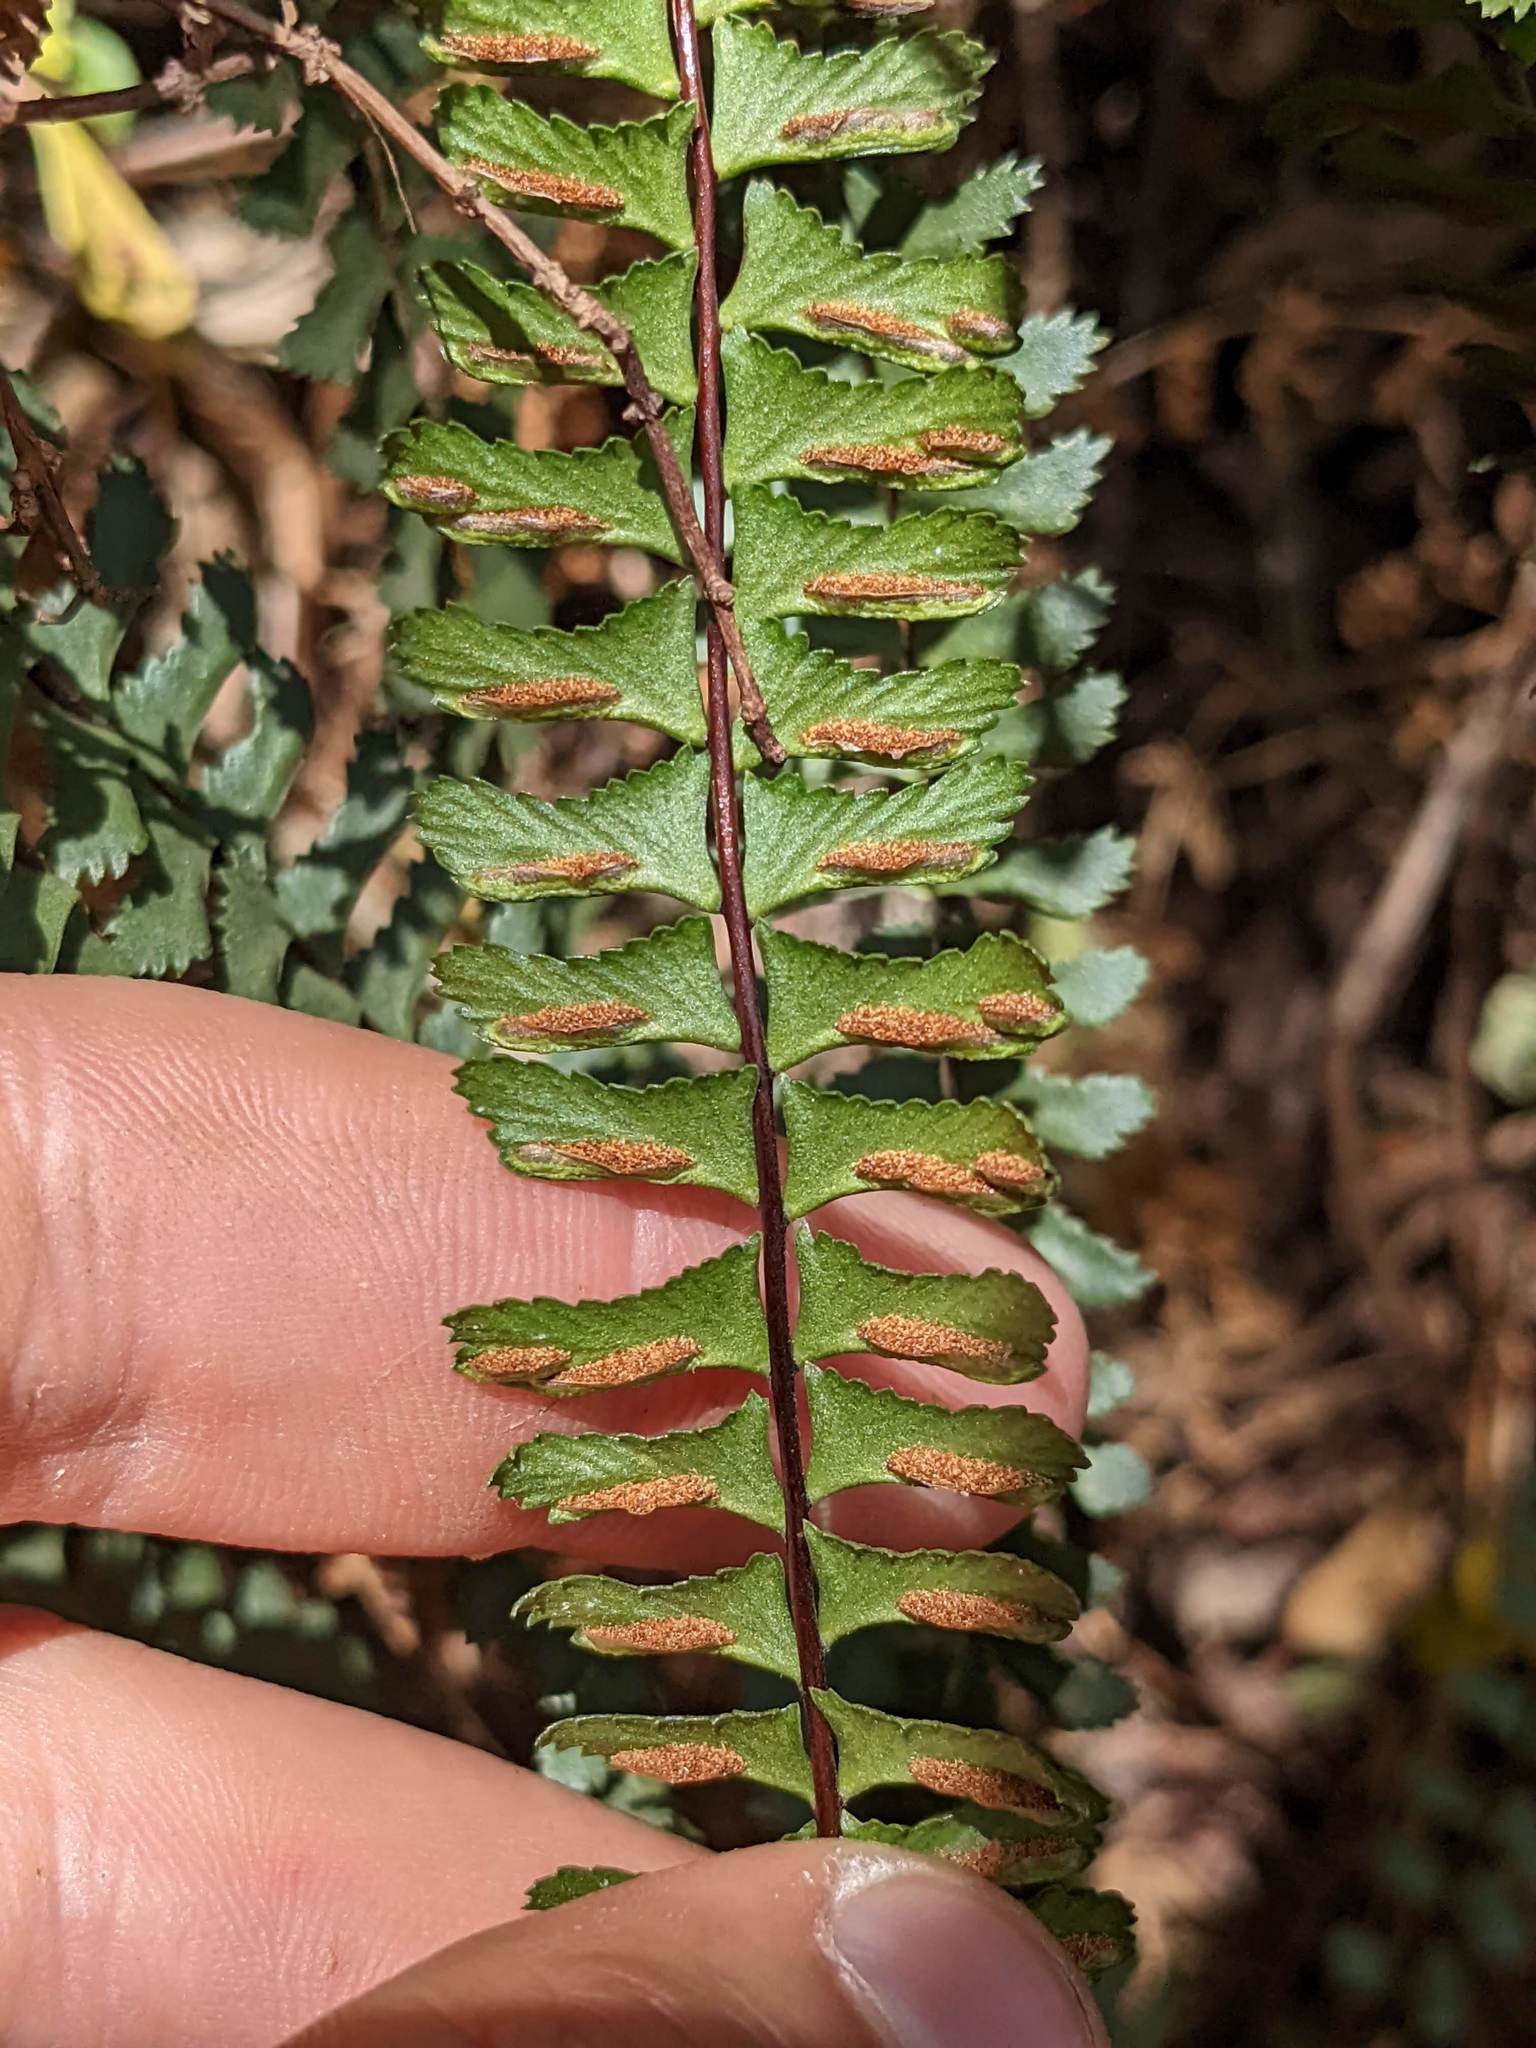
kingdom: Plantae
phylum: Tracheophyta
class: Polypodiopsida
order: Polypodiales
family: Aspleniaceae
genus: Asplenium
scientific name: Asplenium monanthes
